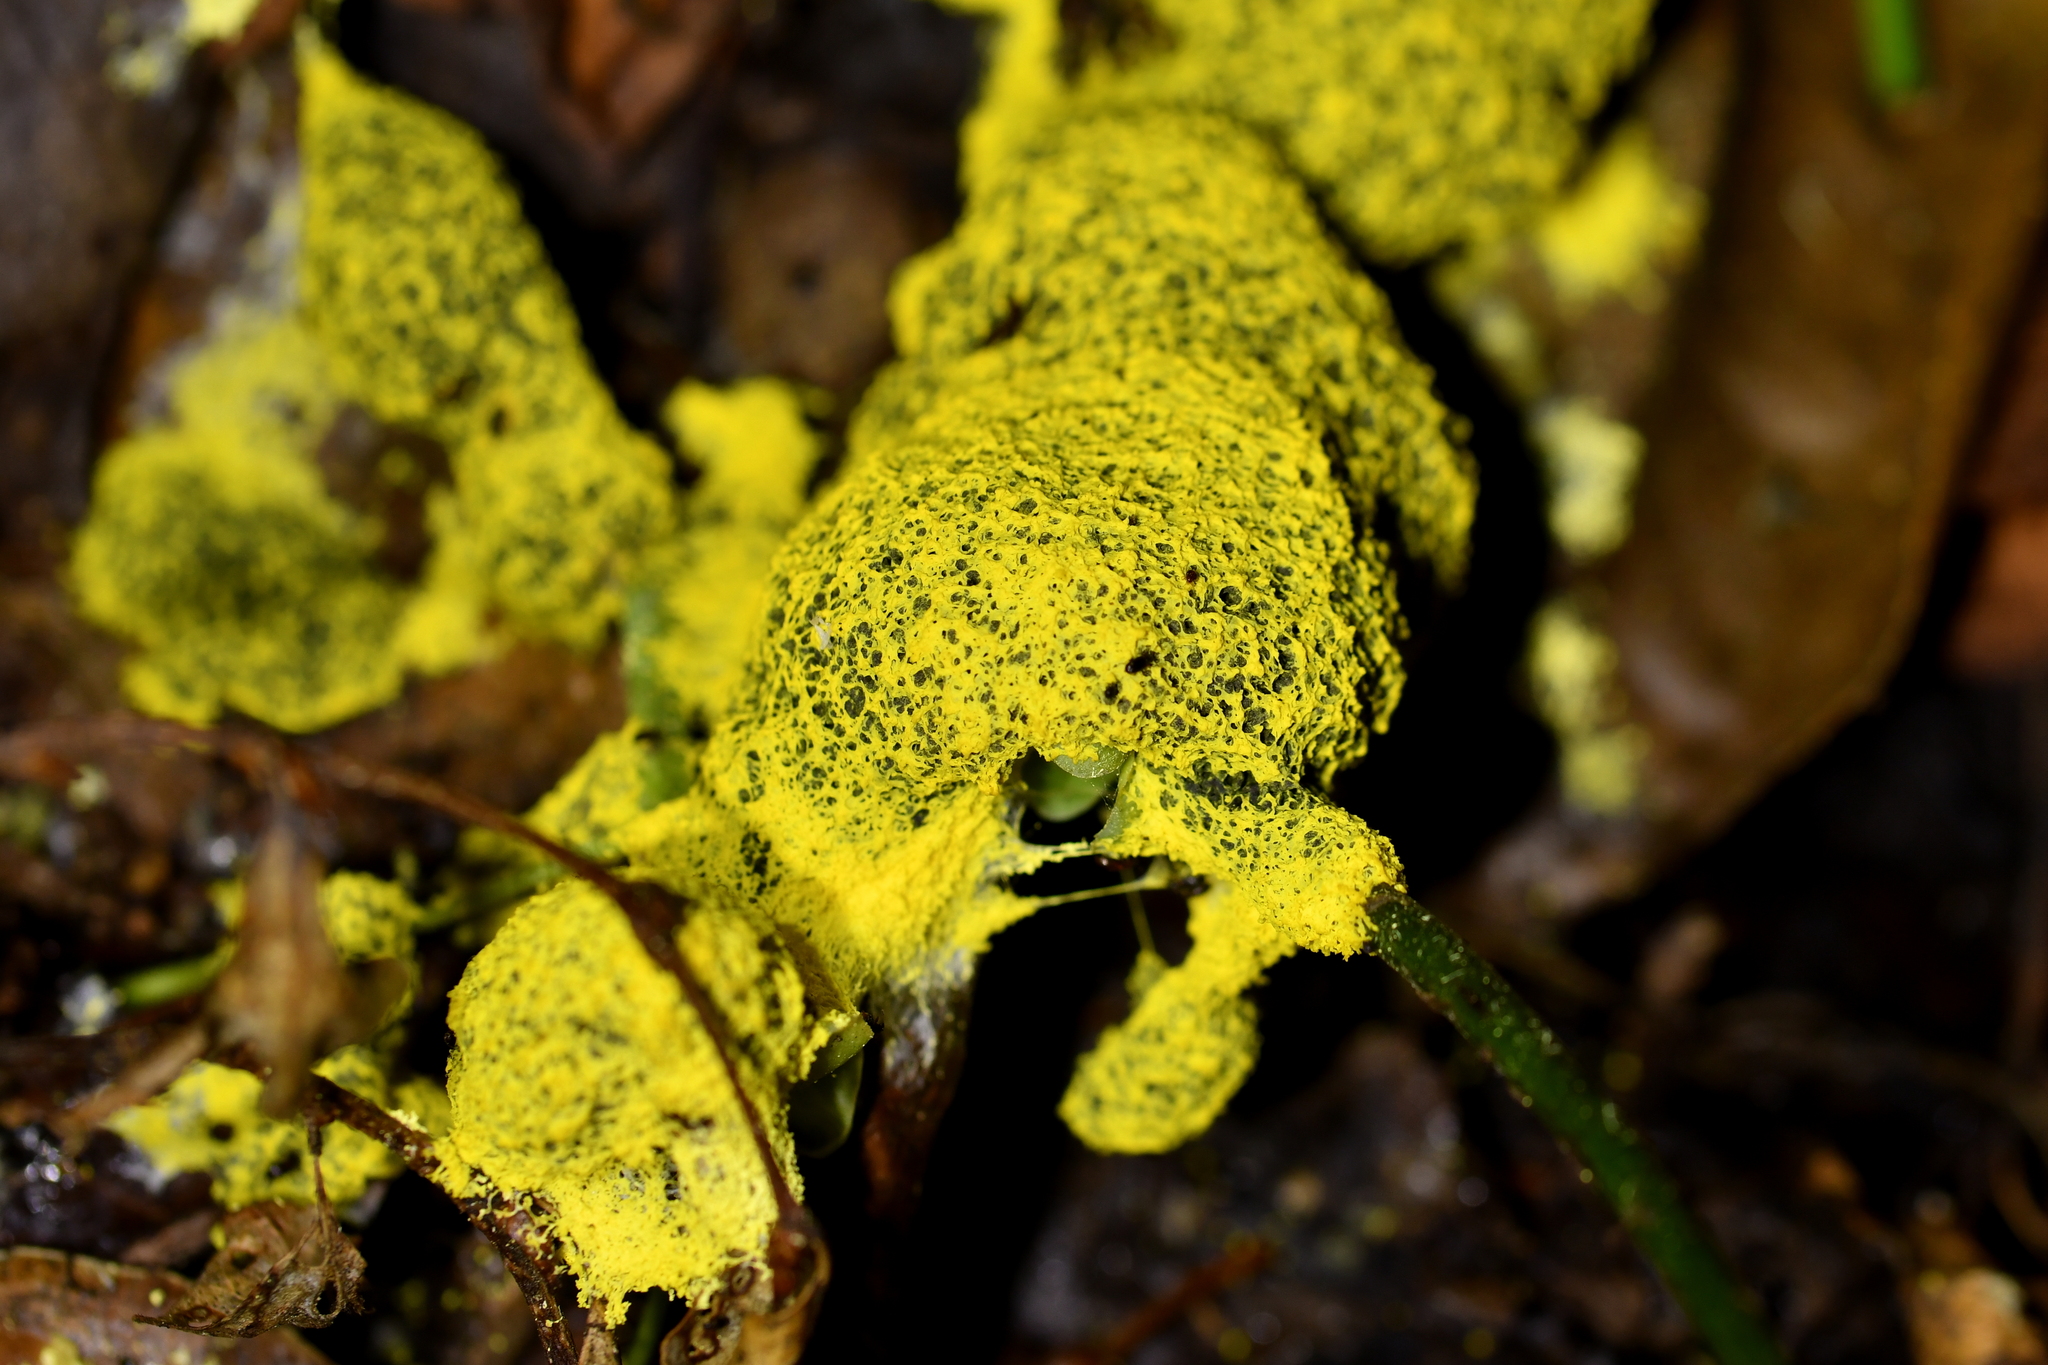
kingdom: Protozoa
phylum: Mycetozoa
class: Myxomycetes
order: Physarales
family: Physaraceae
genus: Fuligo
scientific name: Fuligo septica
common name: Dog vomit slime mold
